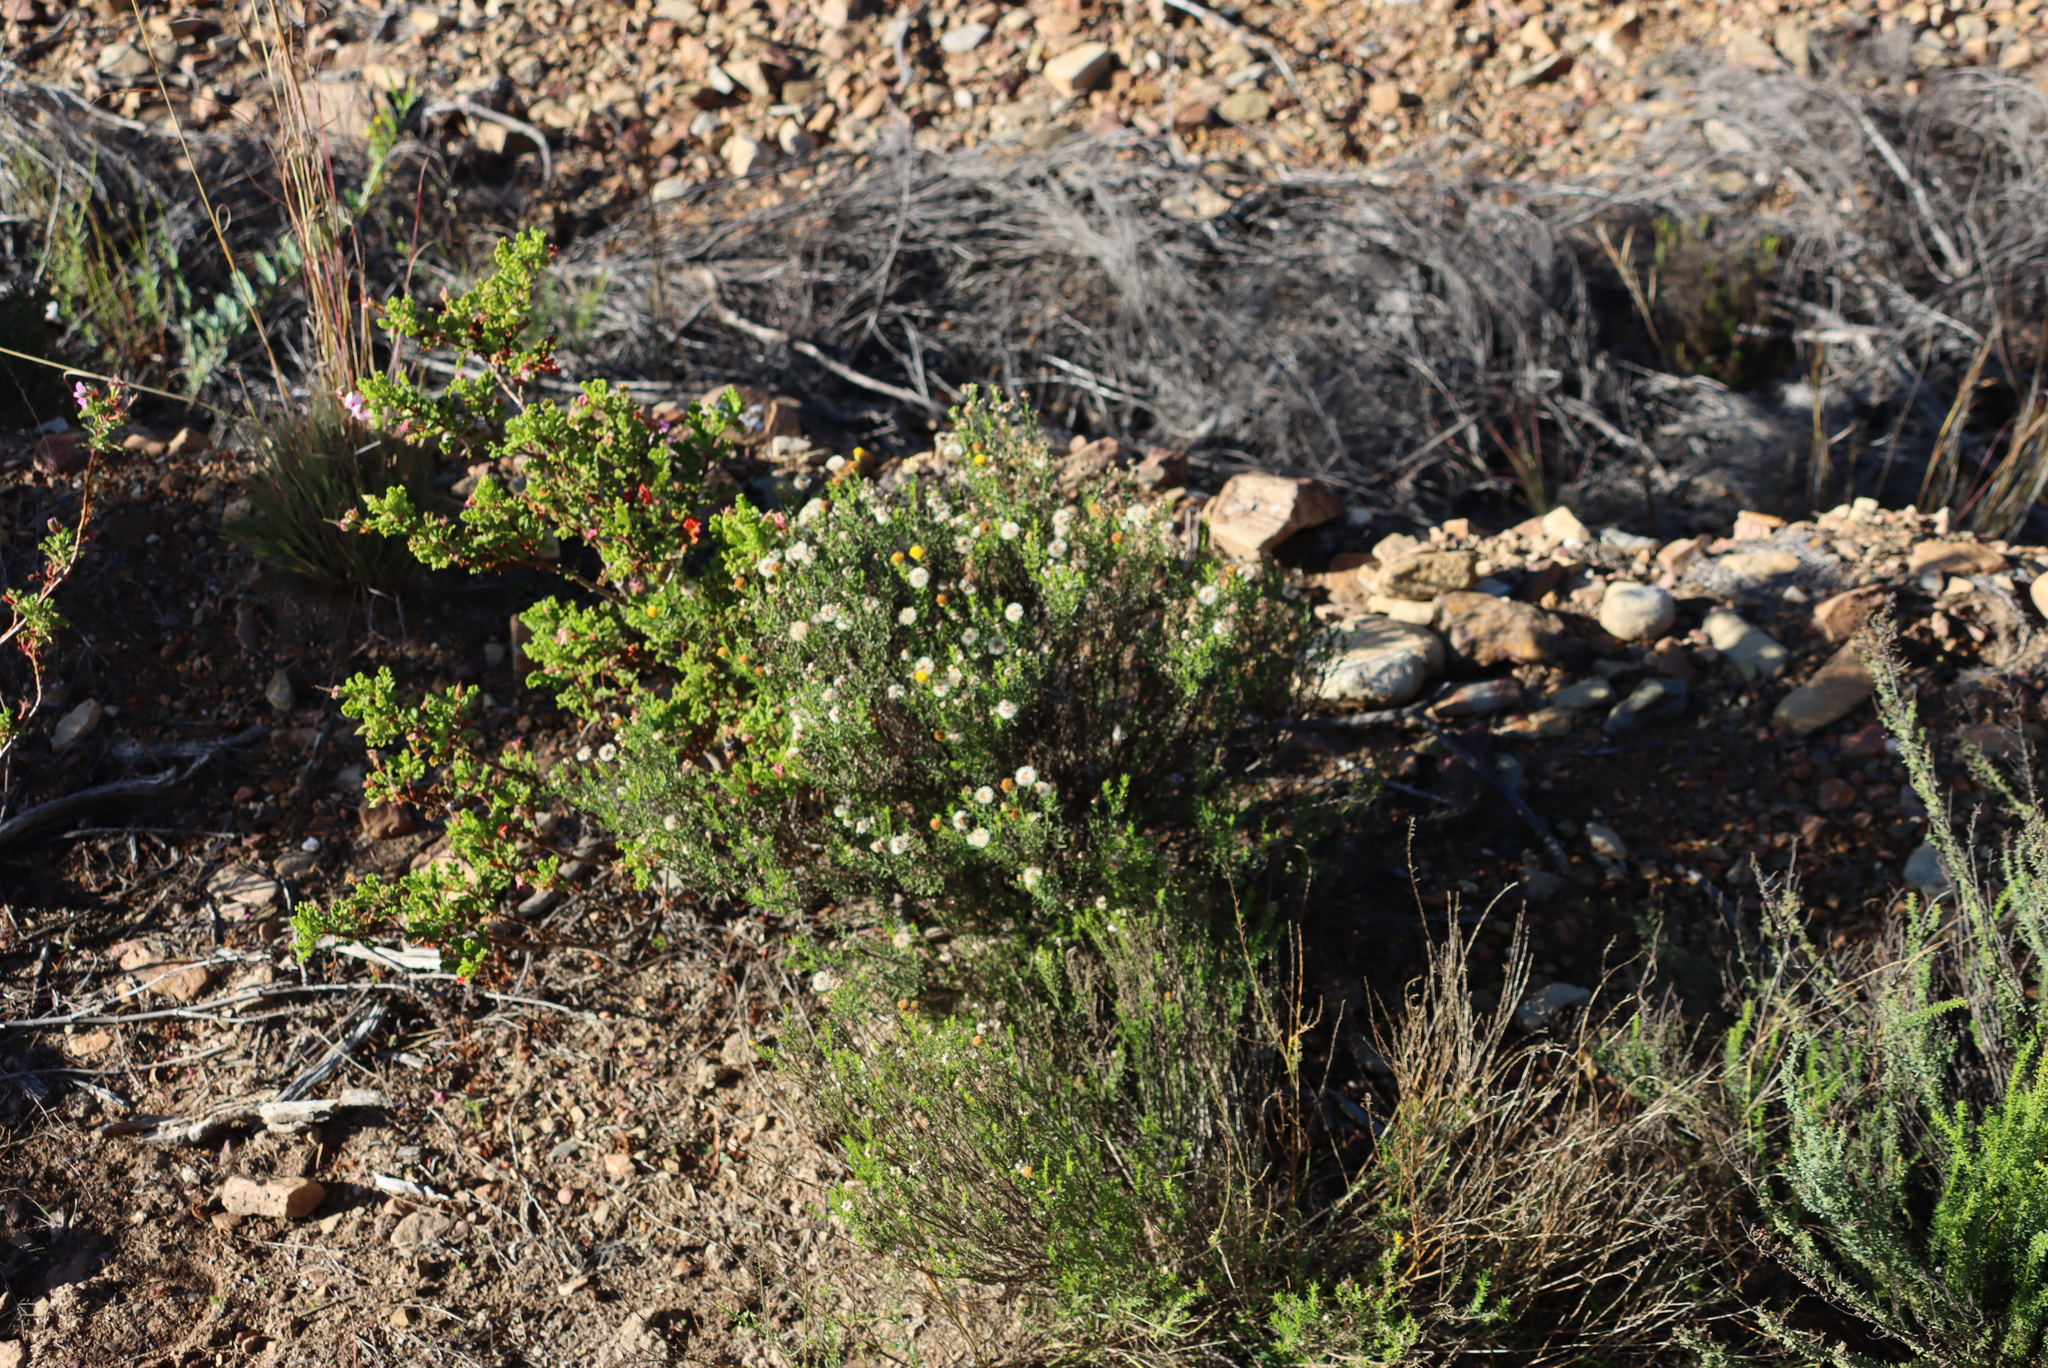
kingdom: Plantae
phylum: Tracheophyta
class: Magnoliopsida
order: Asterales
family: Asteraceae
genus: Chrysocoma
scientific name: Chrysocoma ciliata
